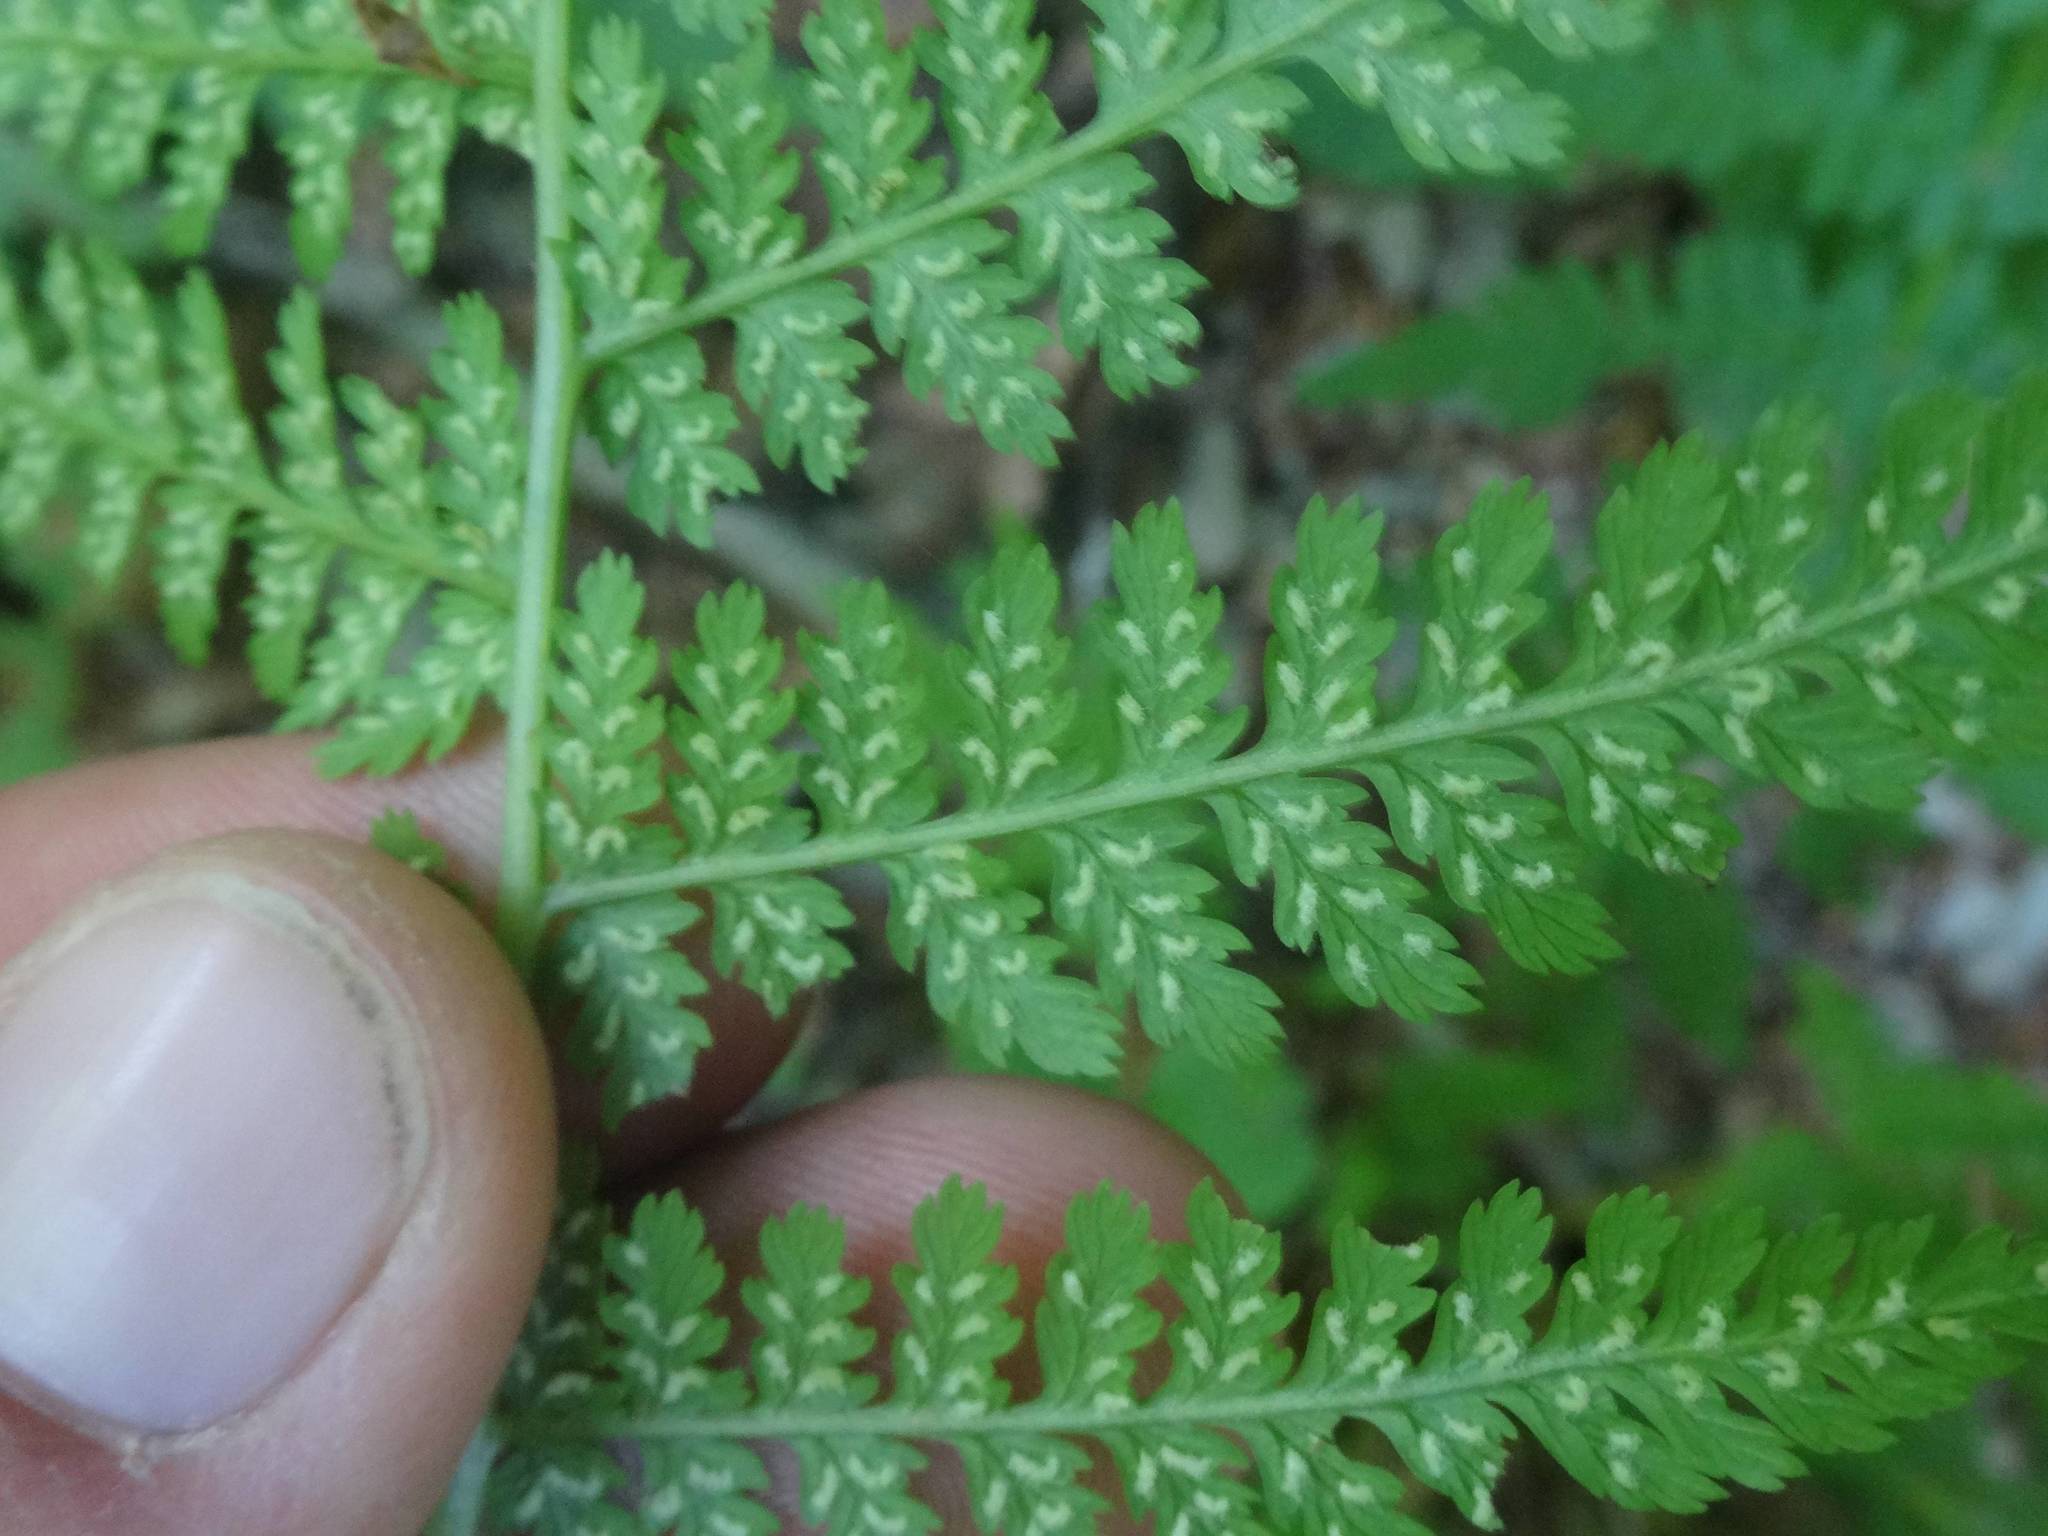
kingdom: Plantae
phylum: Tracheophyta
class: Polypodiopsida
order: Polypodiales
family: Athyriaceae
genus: Athyrium
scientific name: Athyrium filix-femina
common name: Lady fern
